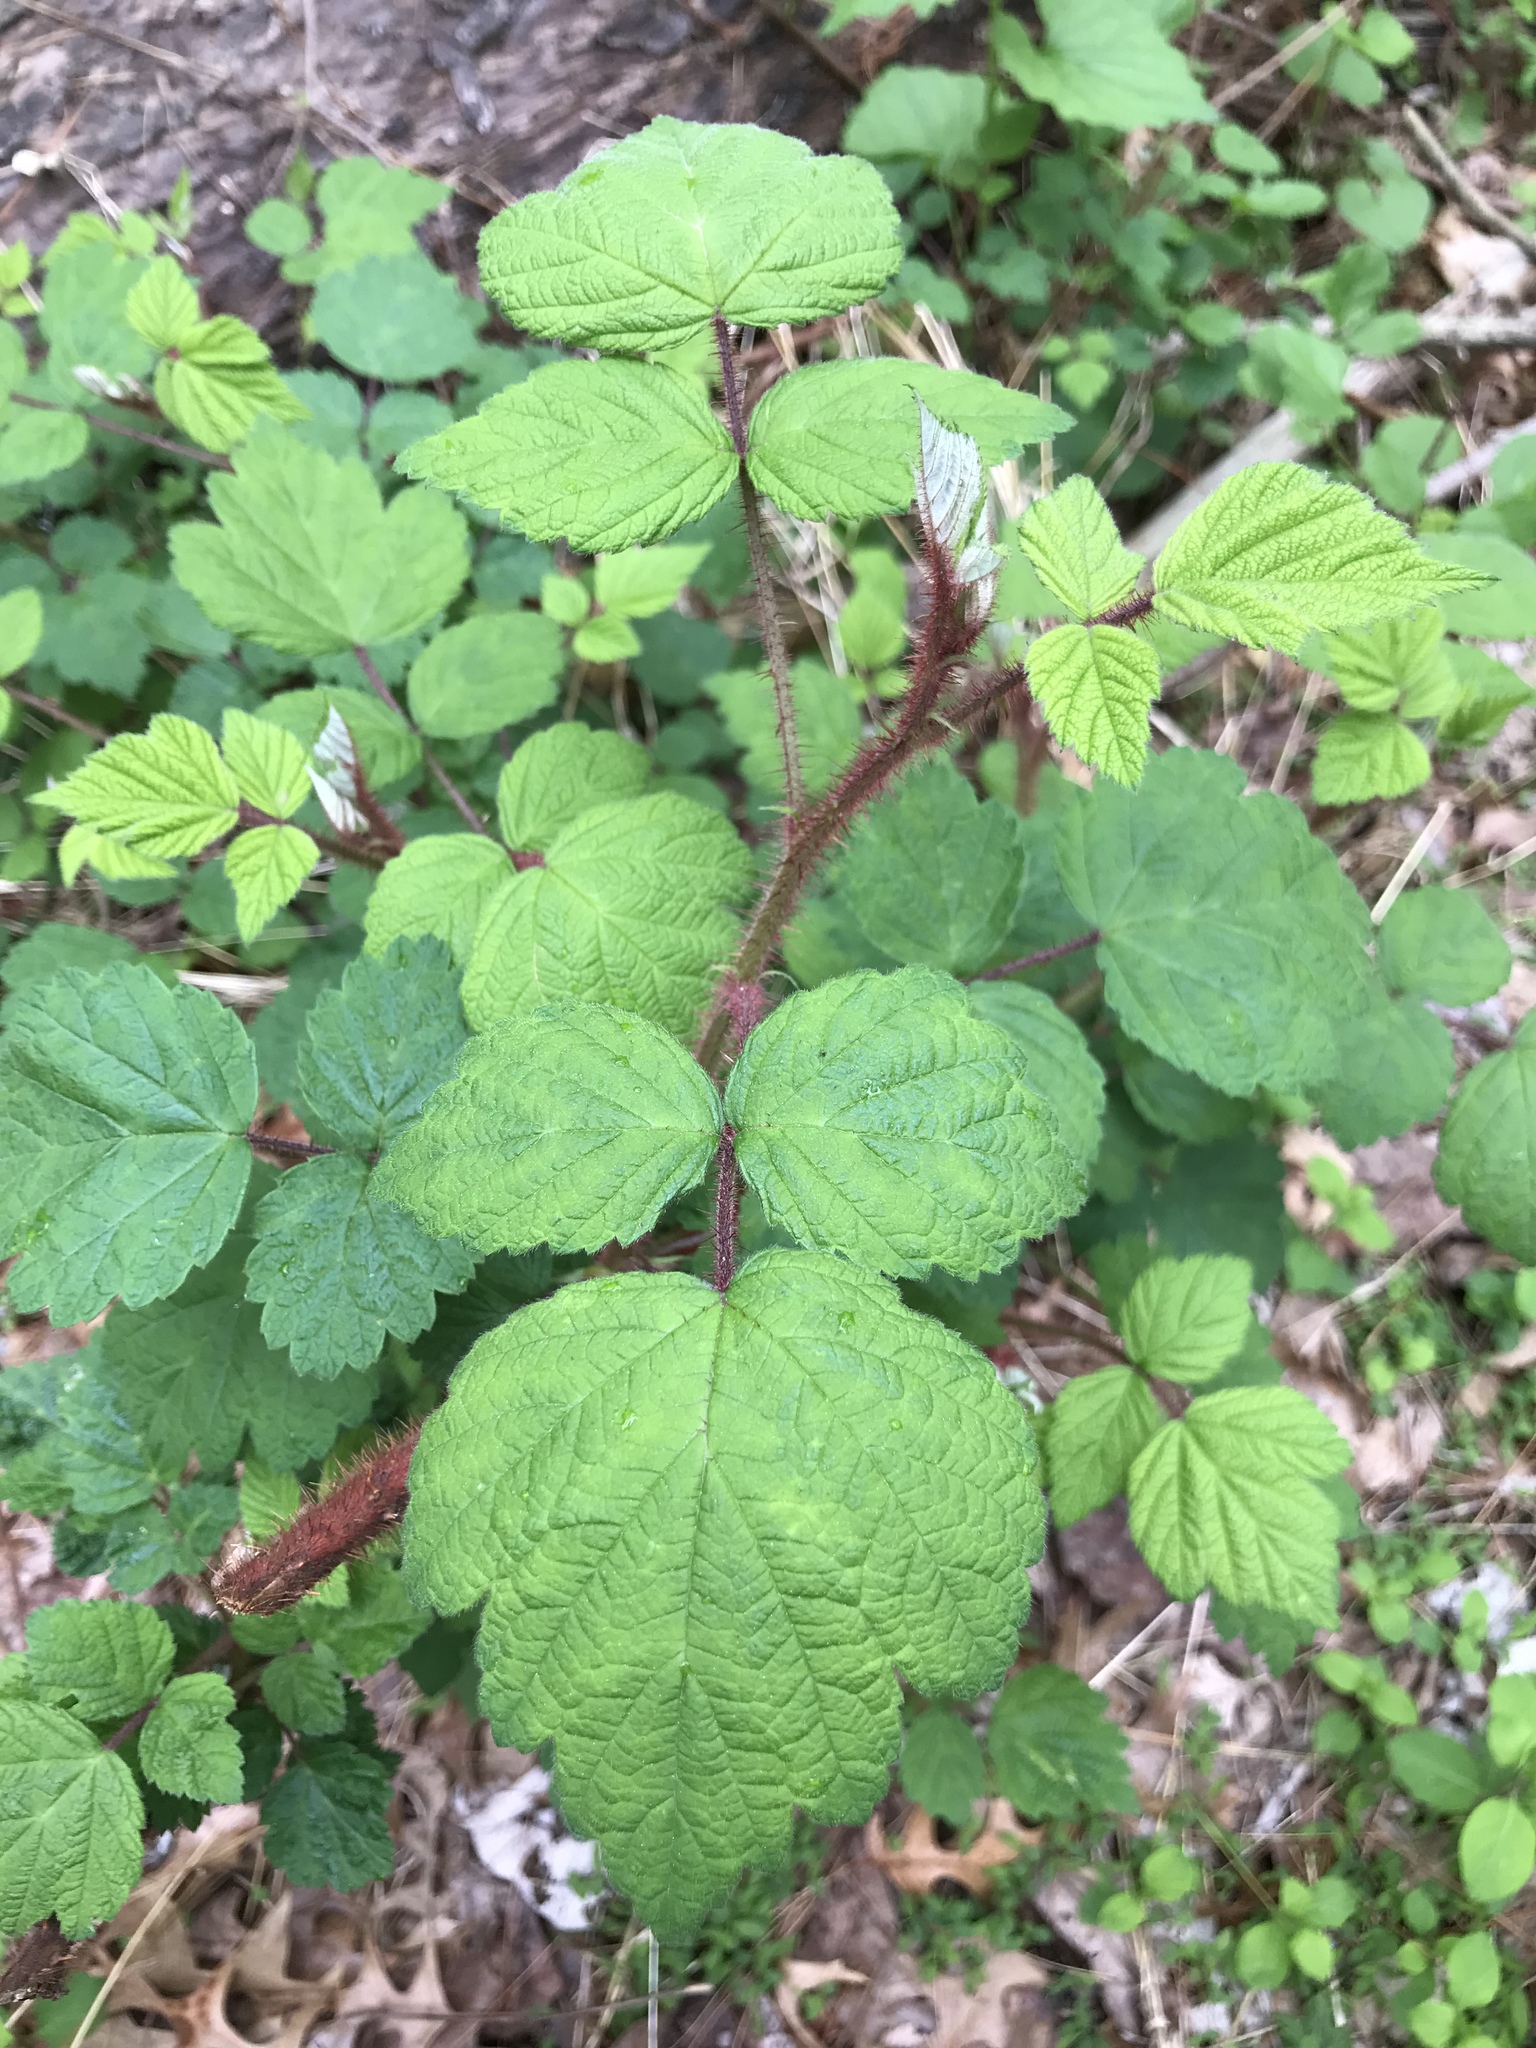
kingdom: Plantae
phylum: Tracheophyta
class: Magnoliopsida
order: Rosales
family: Rosaceae
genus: Rubus
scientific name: Rubus phoenicolasius
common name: Japanese wineberry
